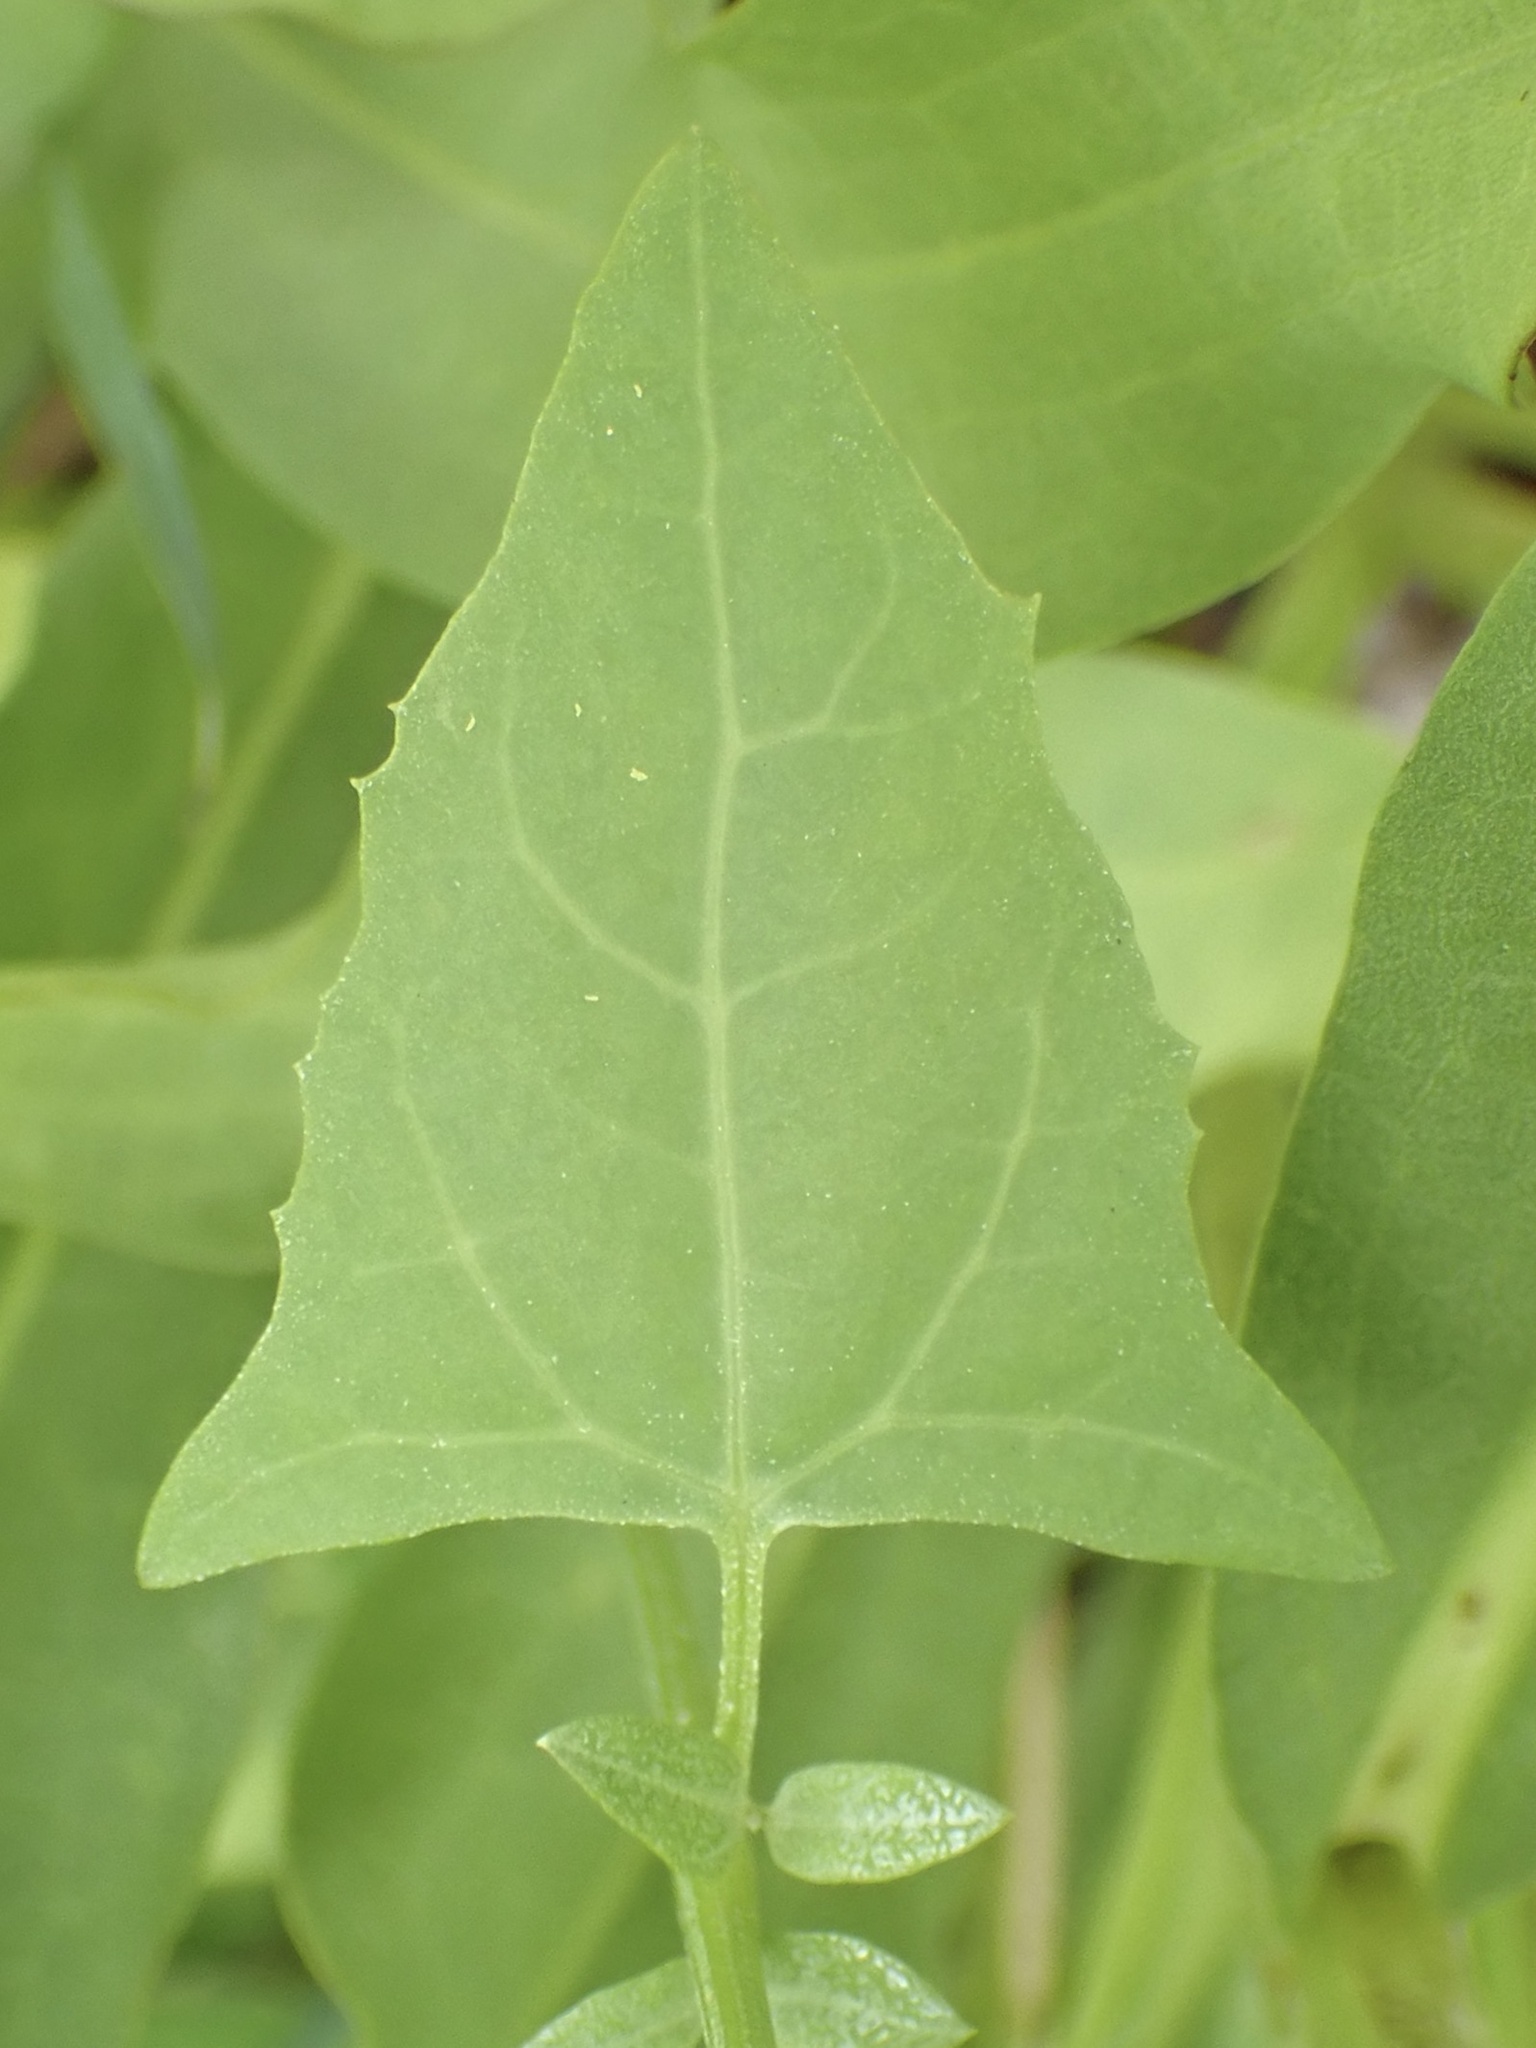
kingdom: Plantae
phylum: Tracheophyta
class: Magnoliopsida
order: Caryophyllales
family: Amaranthaceae
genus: Atriplex
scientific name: Atriplex prostrata
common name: Spear-leaved orache
